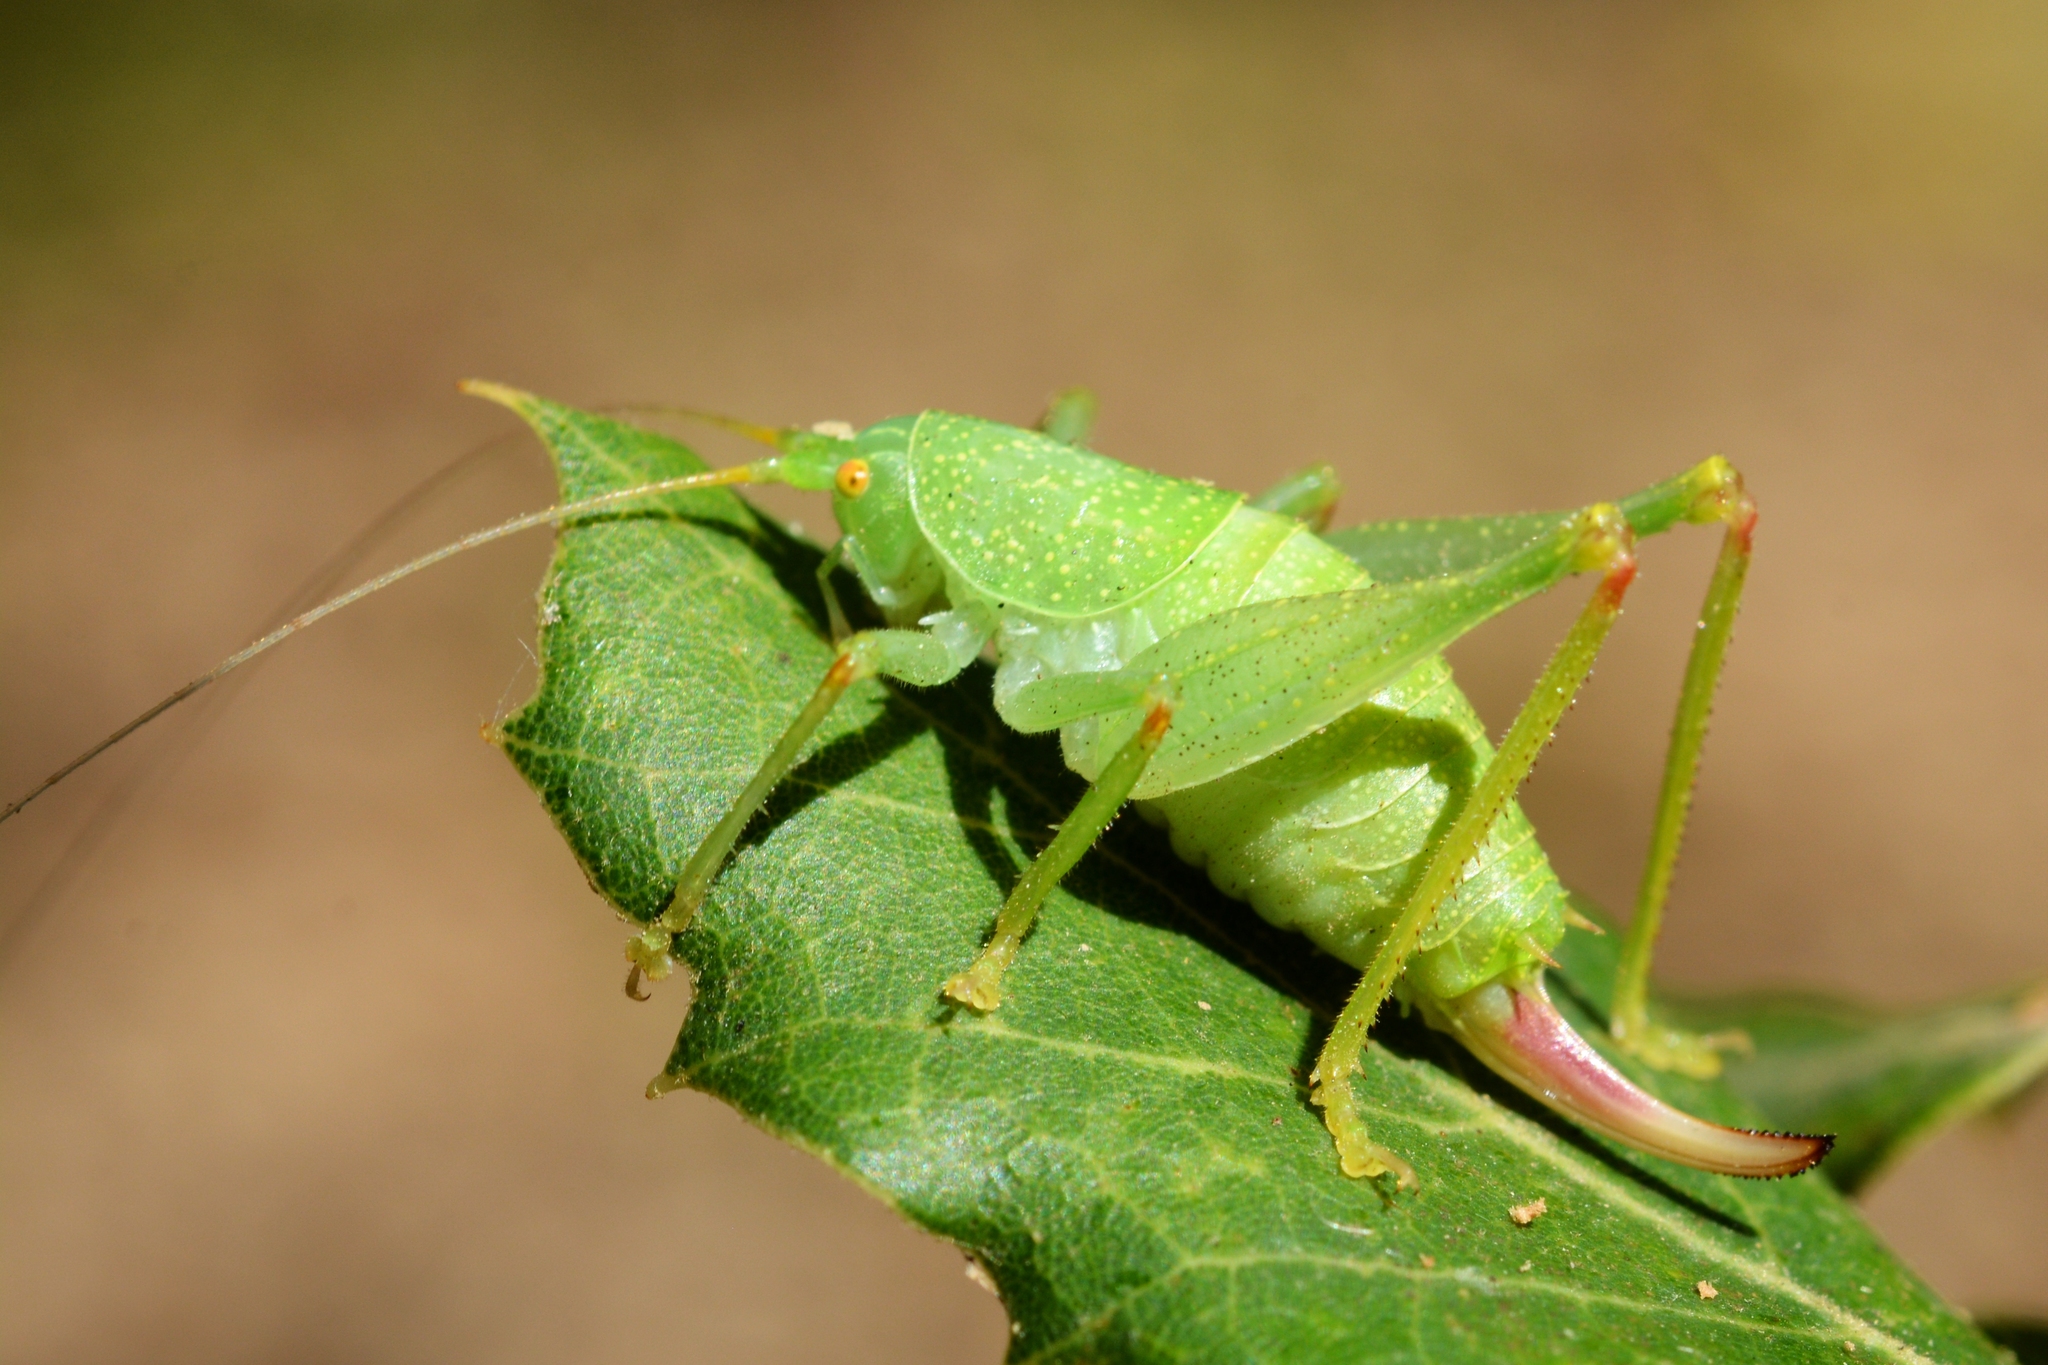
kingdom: Animalia
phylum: Arthropoda
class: Insecta
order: Orthoptera
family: Tettigoniidae
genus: Cyrtaspis
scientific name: Cyrtaspis scutata
